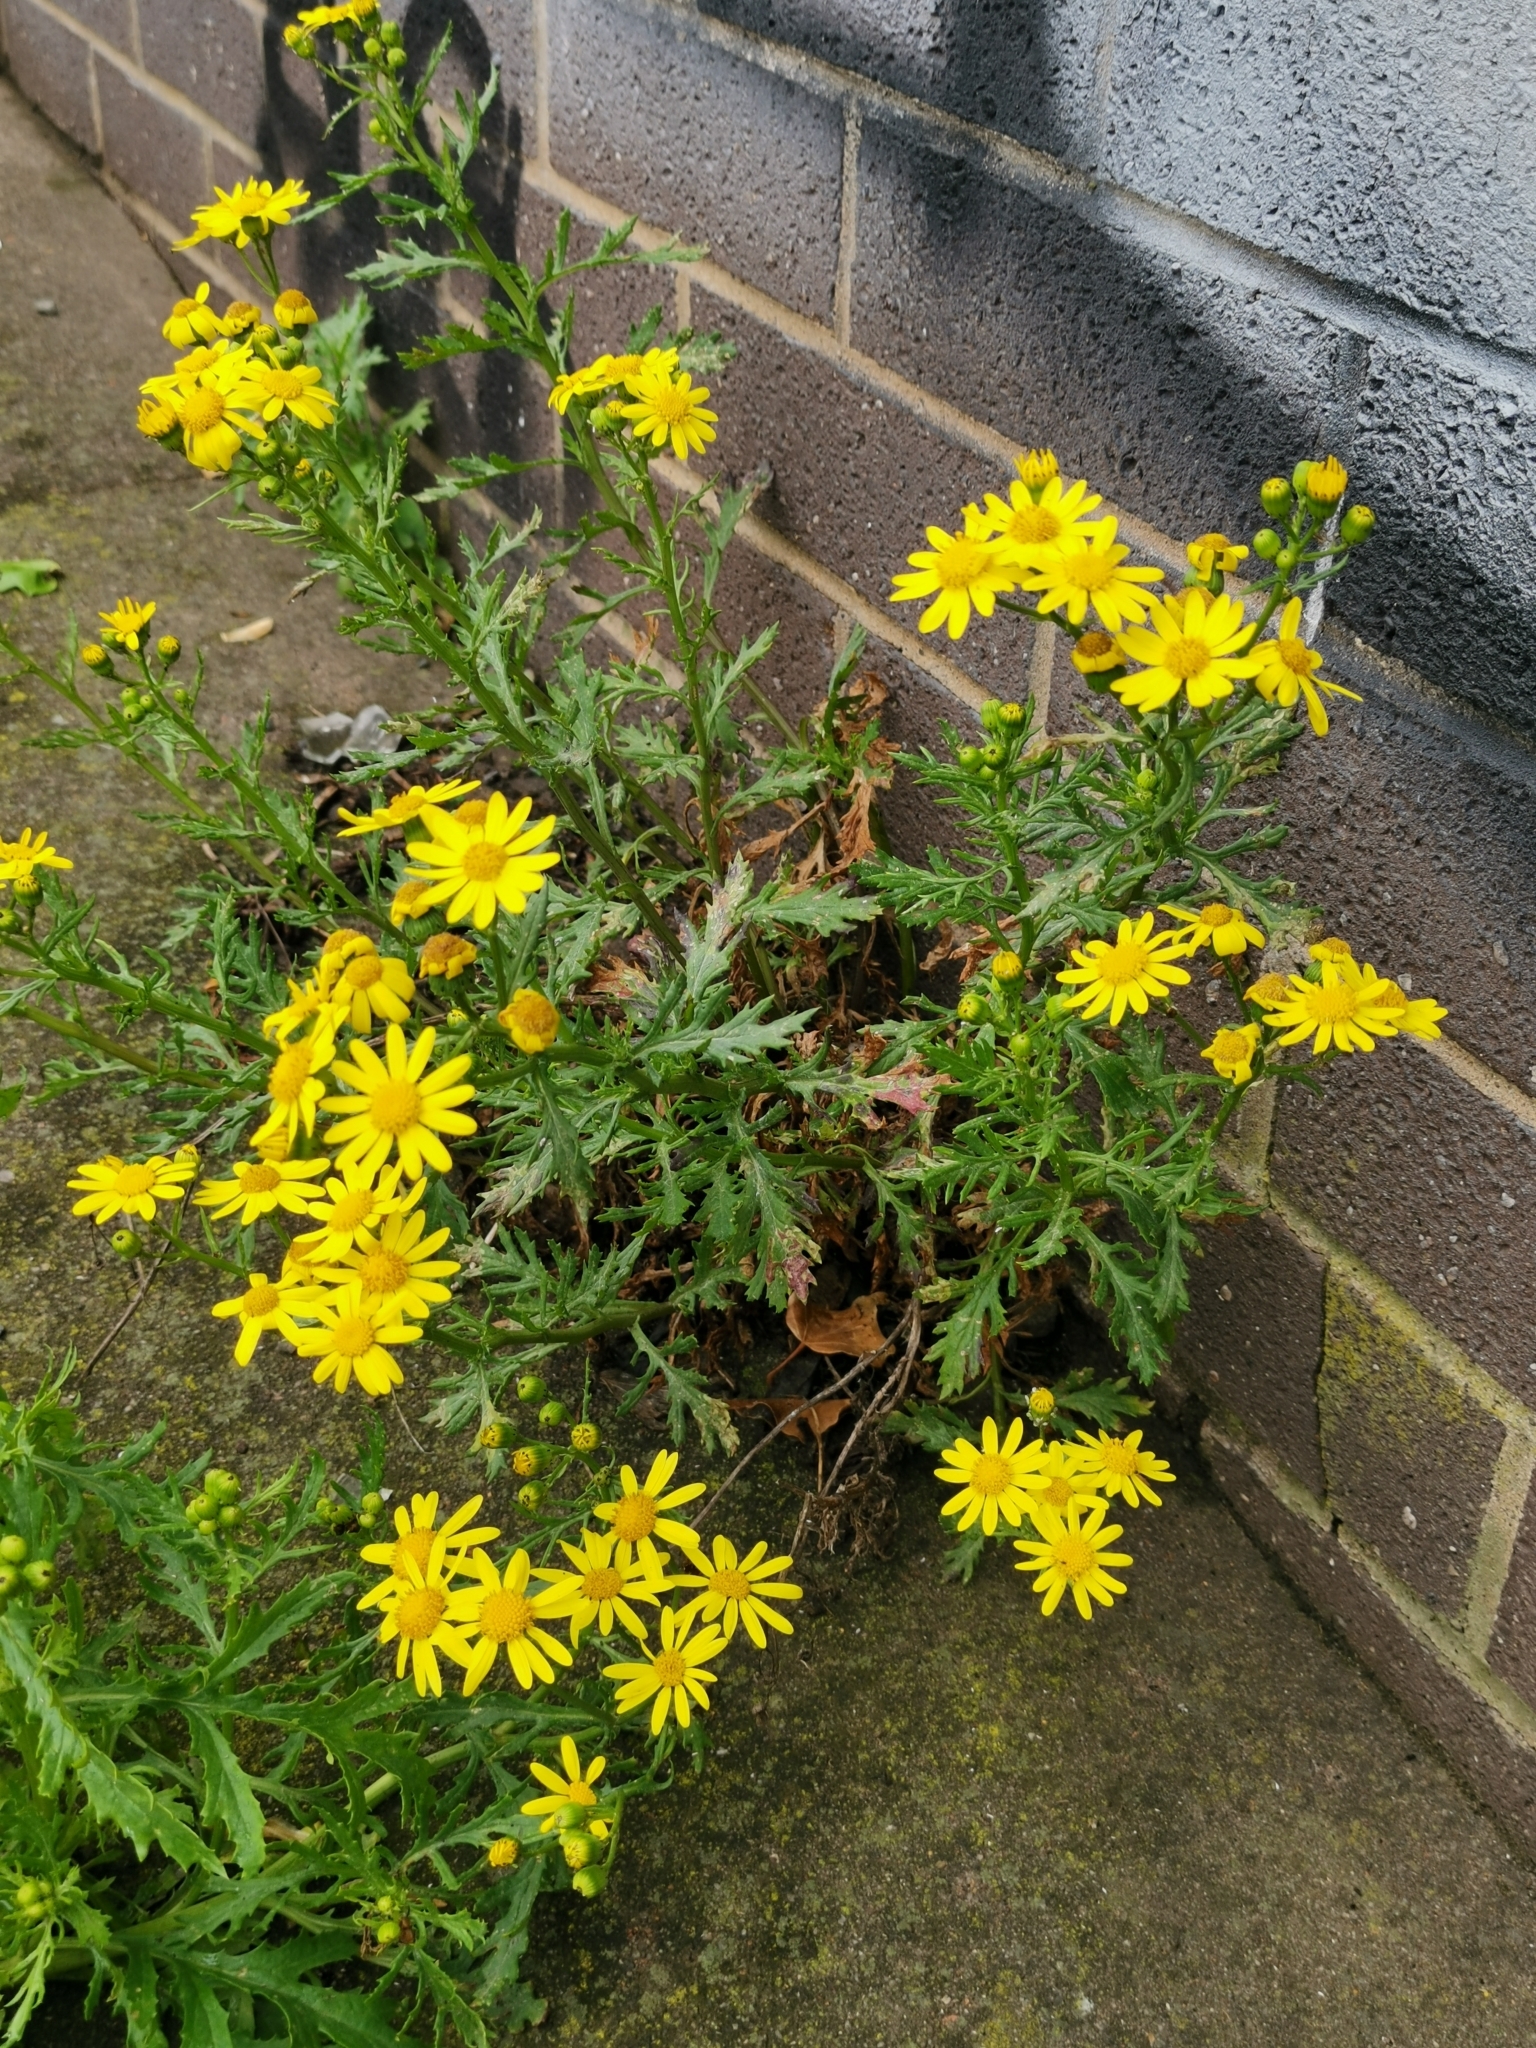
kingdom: Plantae
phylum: Tracheophyta
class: Magnoliopsida
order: Asterales
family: Asteraceae
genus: Senecio
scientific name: Senecio squalidus
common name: Oxford ragwort
